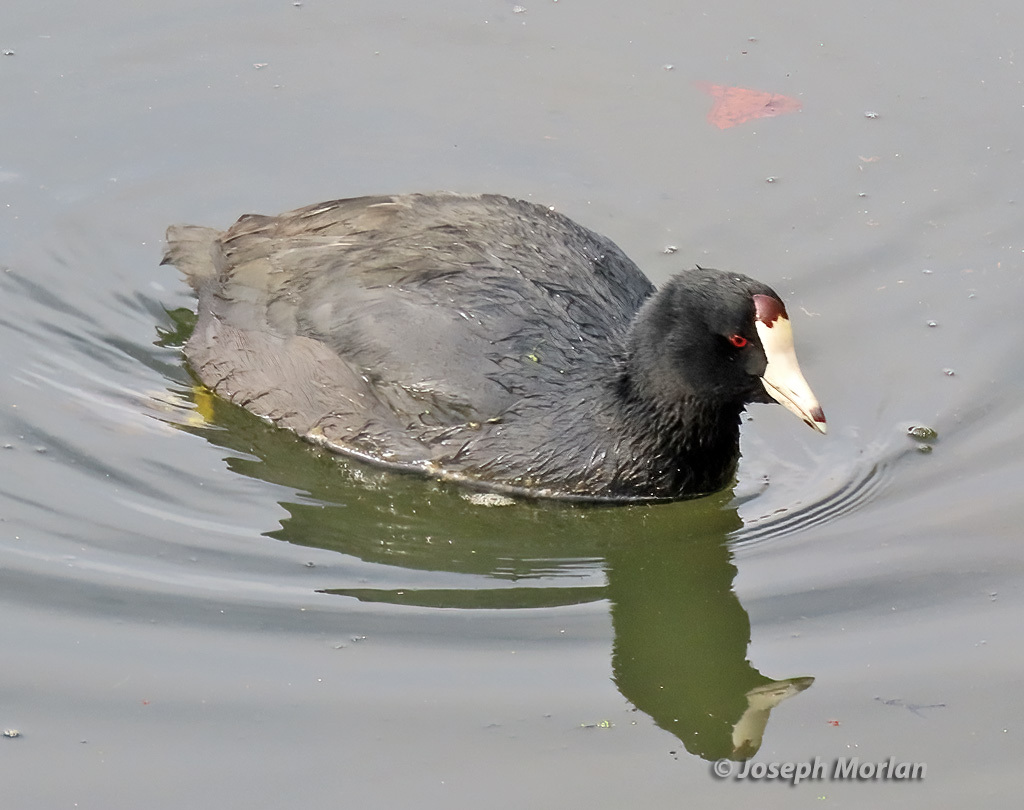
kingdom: Animalia
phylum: Chordata
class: Aves
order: Gruiformes
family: Rallidae
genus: Fulica
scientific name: Fulica americana
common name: American coot
